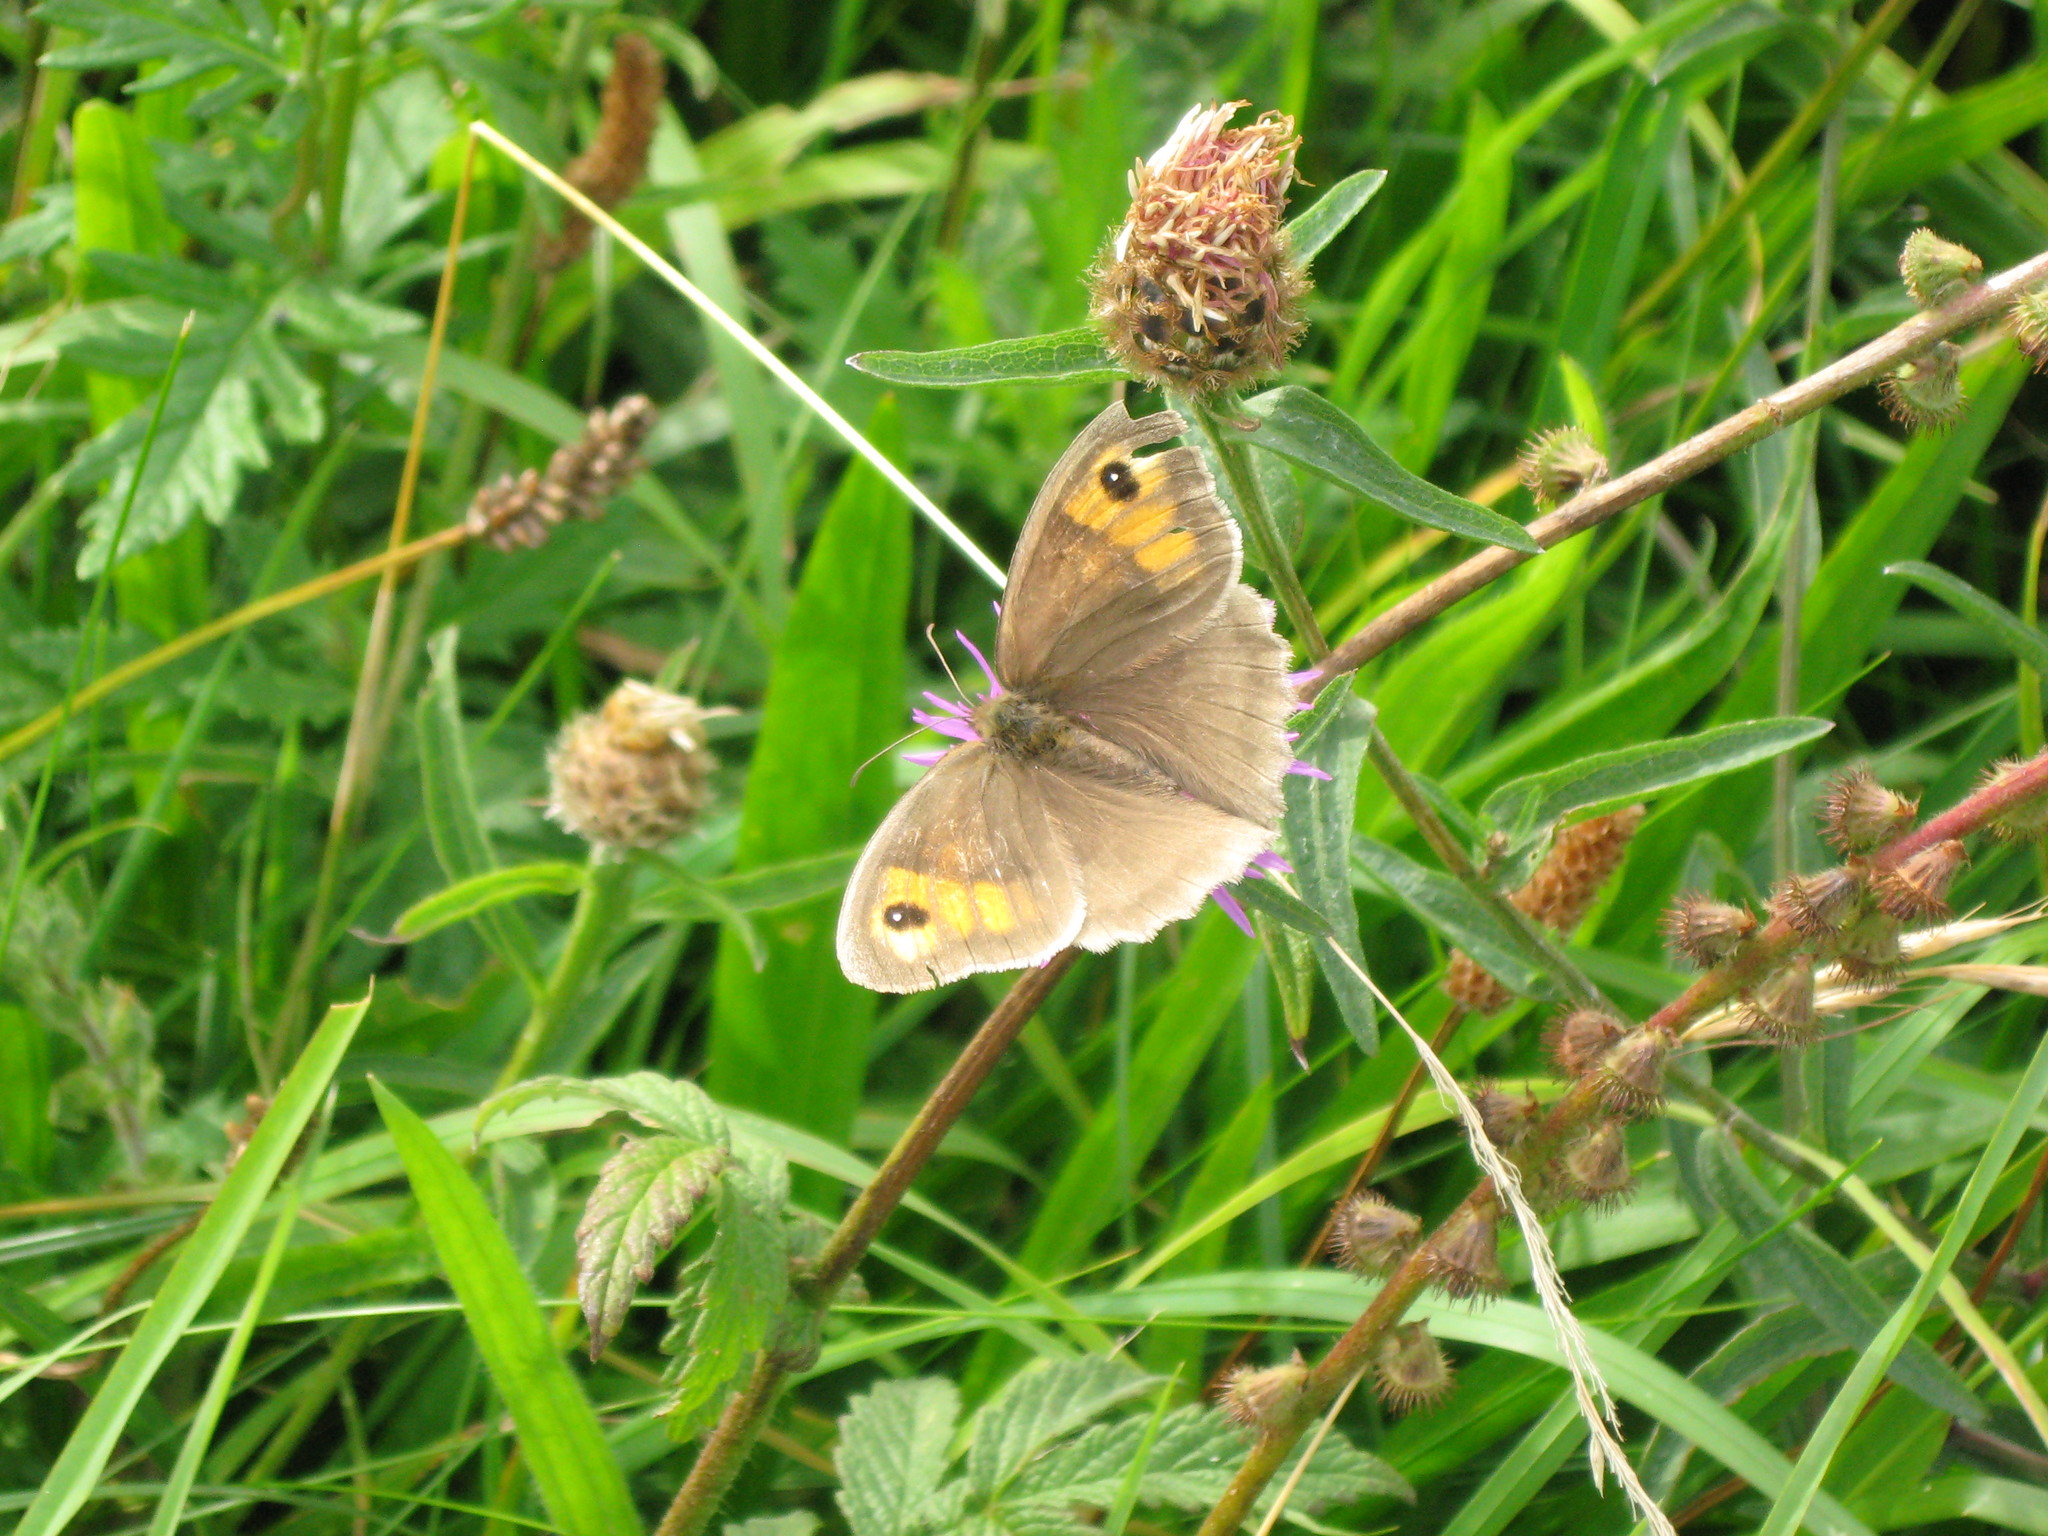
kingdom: Animalia
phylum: Arthropoda
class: Insecta
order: Lepidoptera
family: Nymphalidae
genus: Maniola
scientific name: Maniola jurtina
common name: Meadow brown
